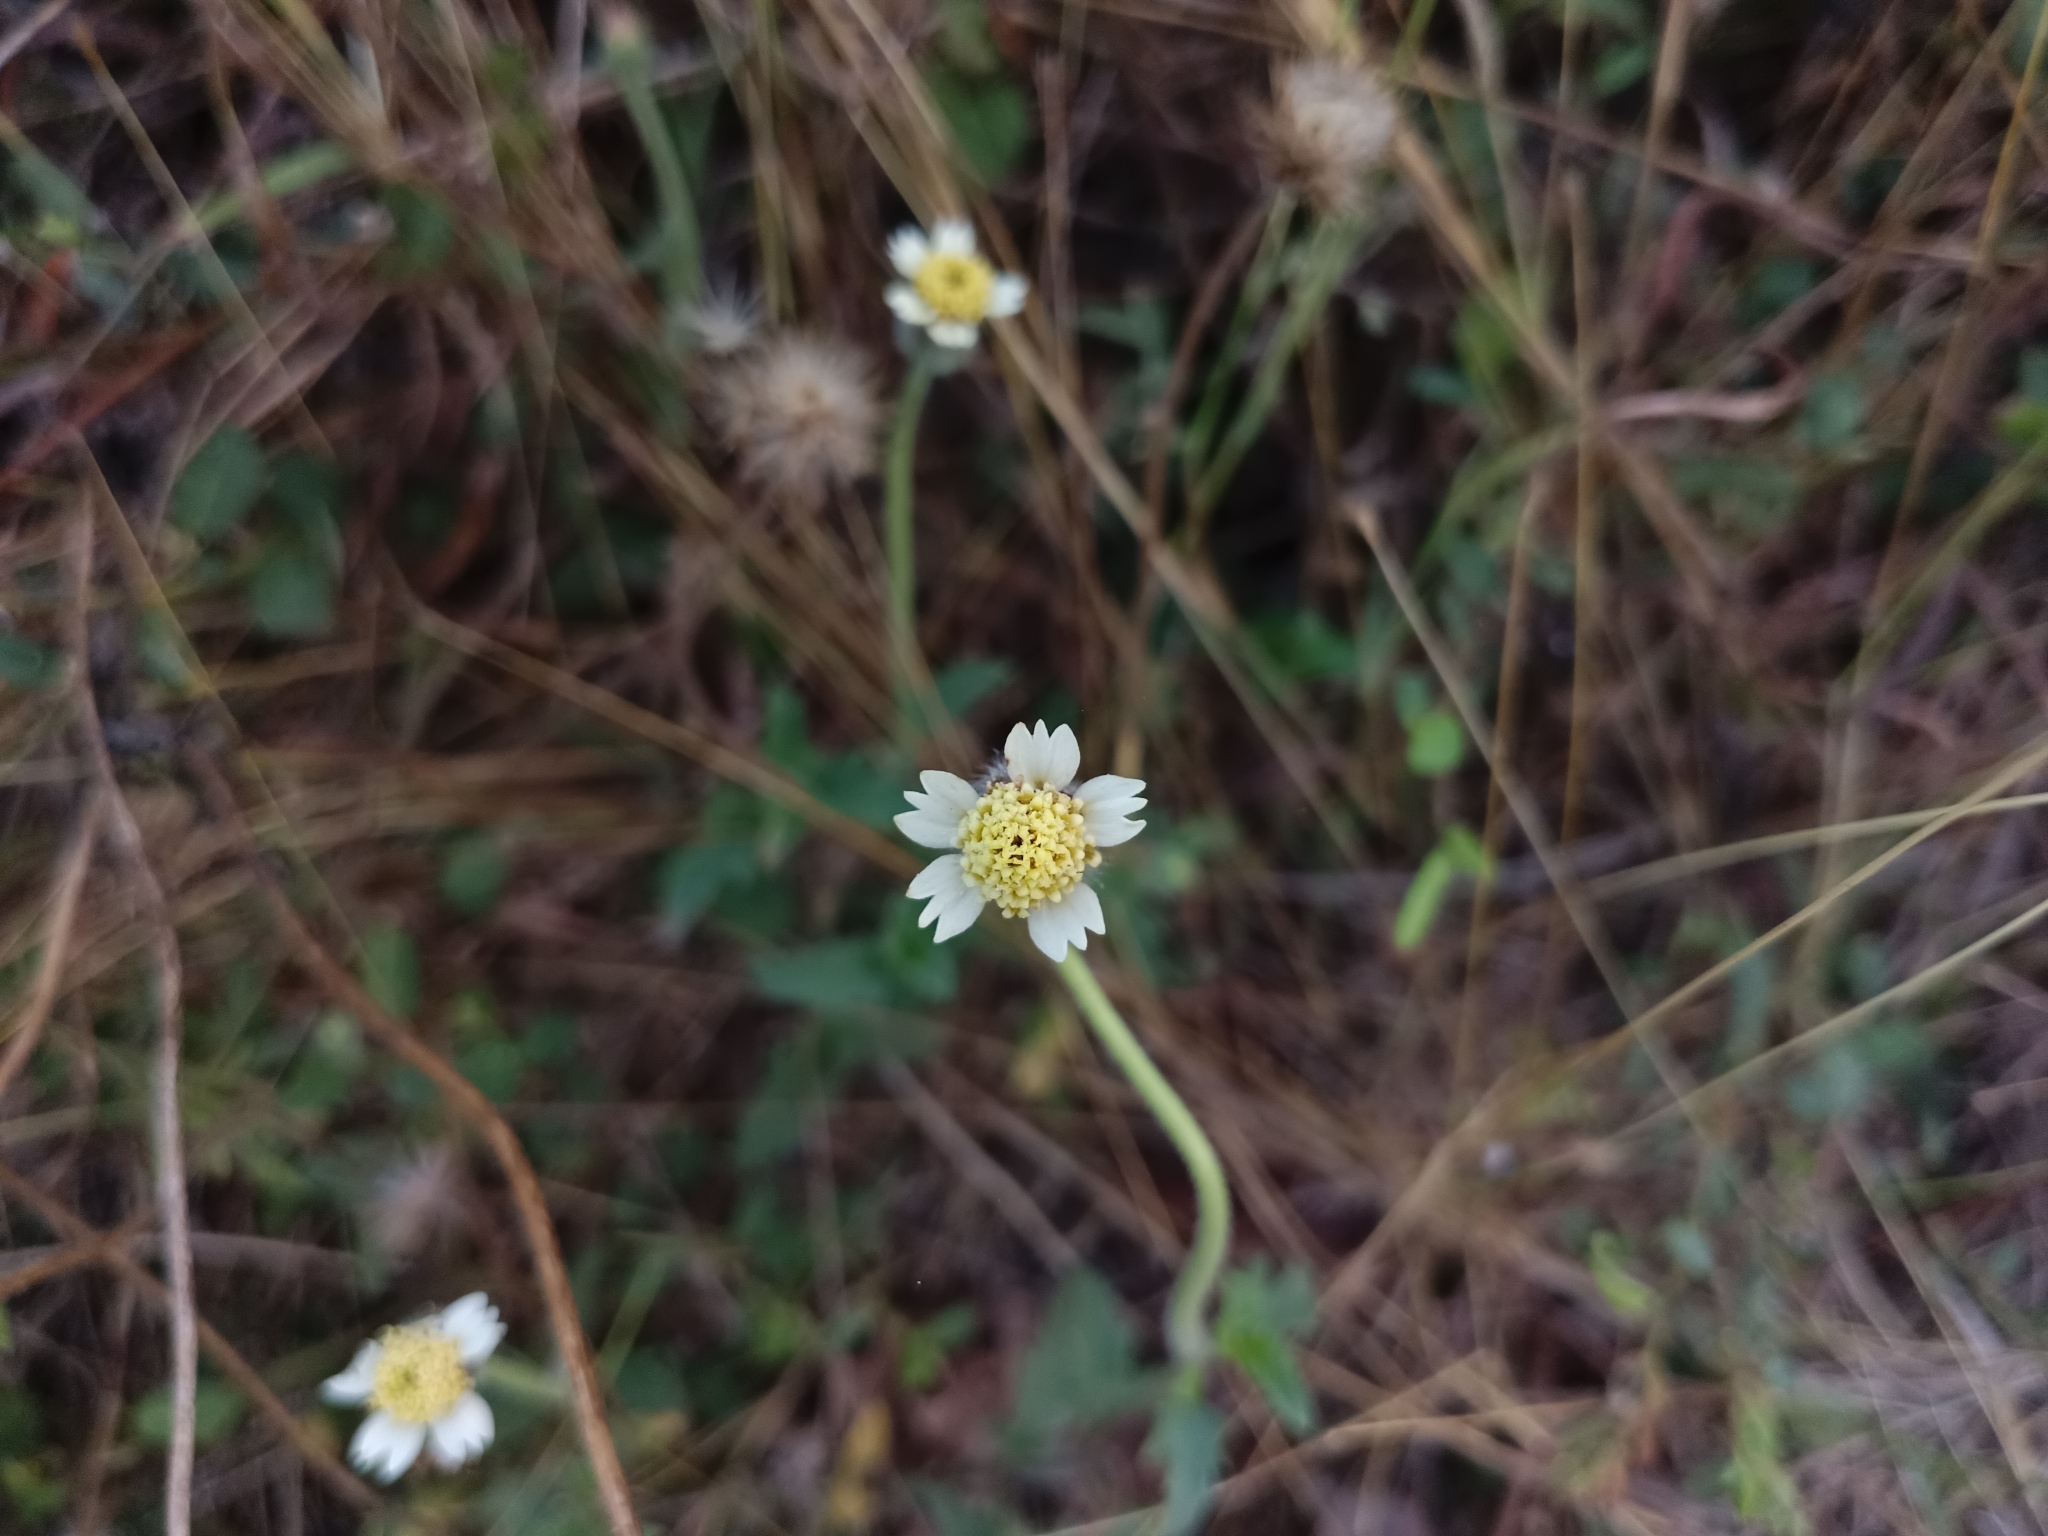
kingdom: Plantae
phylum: Tracheophyta
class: Magnoliopsida
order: Asterales
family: Asteraceae
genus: Tridax
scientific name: Tridax procumbens
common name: Coatbuttons
